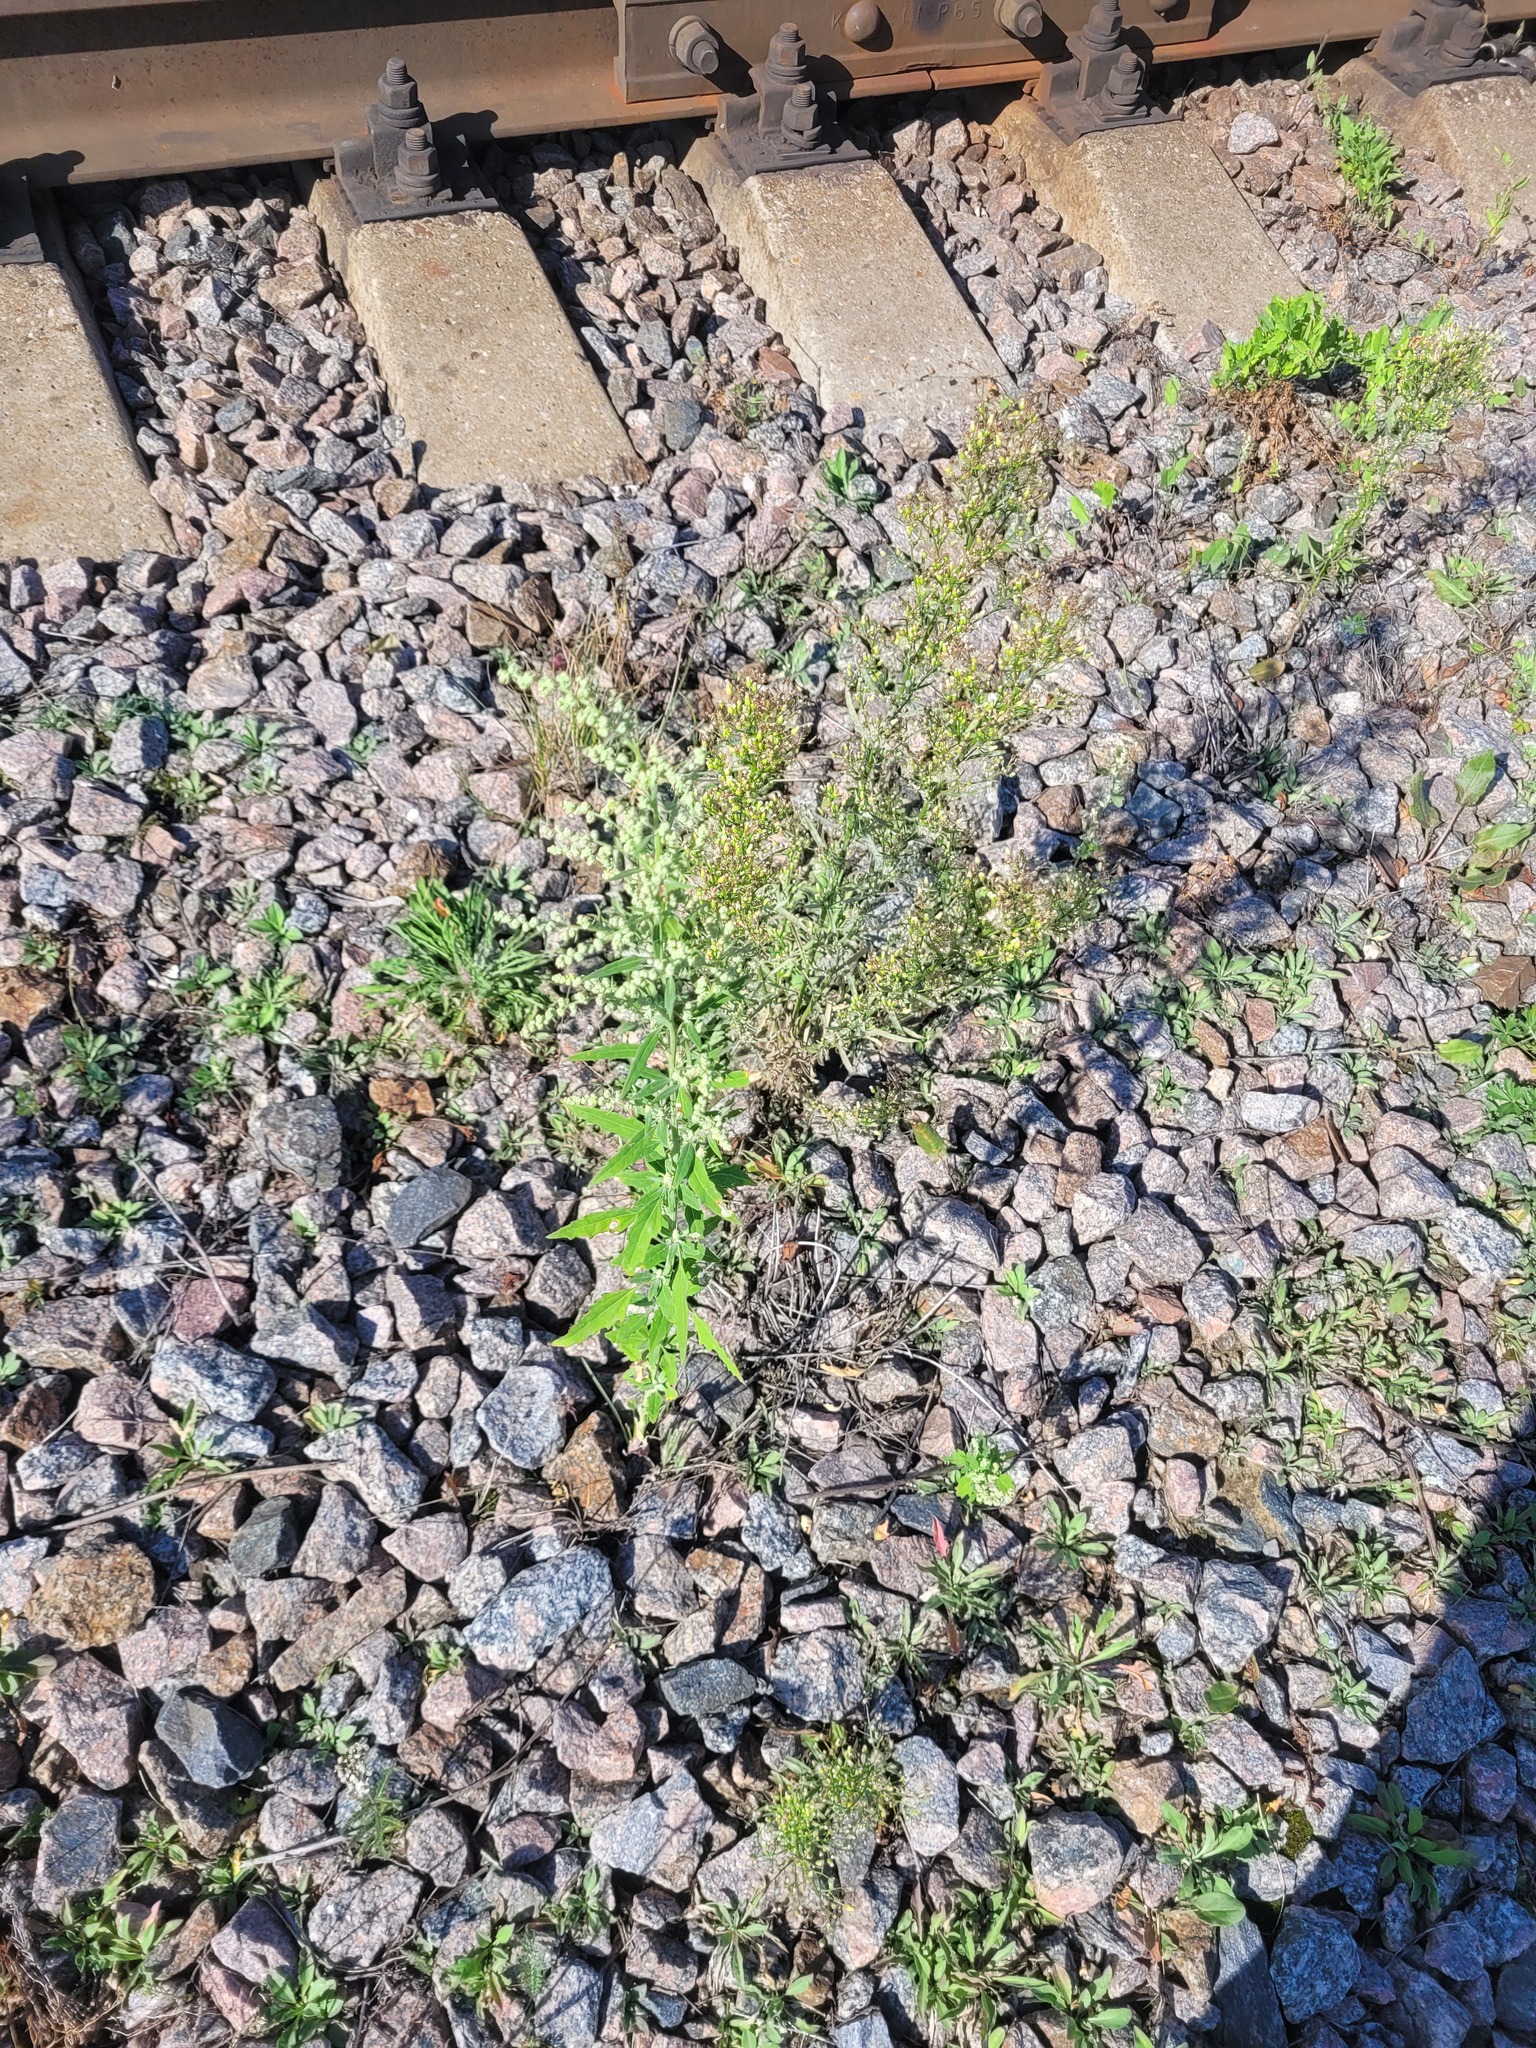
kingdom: Plantae
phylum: Tracheophyta
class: Magnoliopsida
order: Caryophyllales
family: Amaranthaceae
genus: Chenopodium
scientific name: Chenopodium album
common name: Fat-hen
